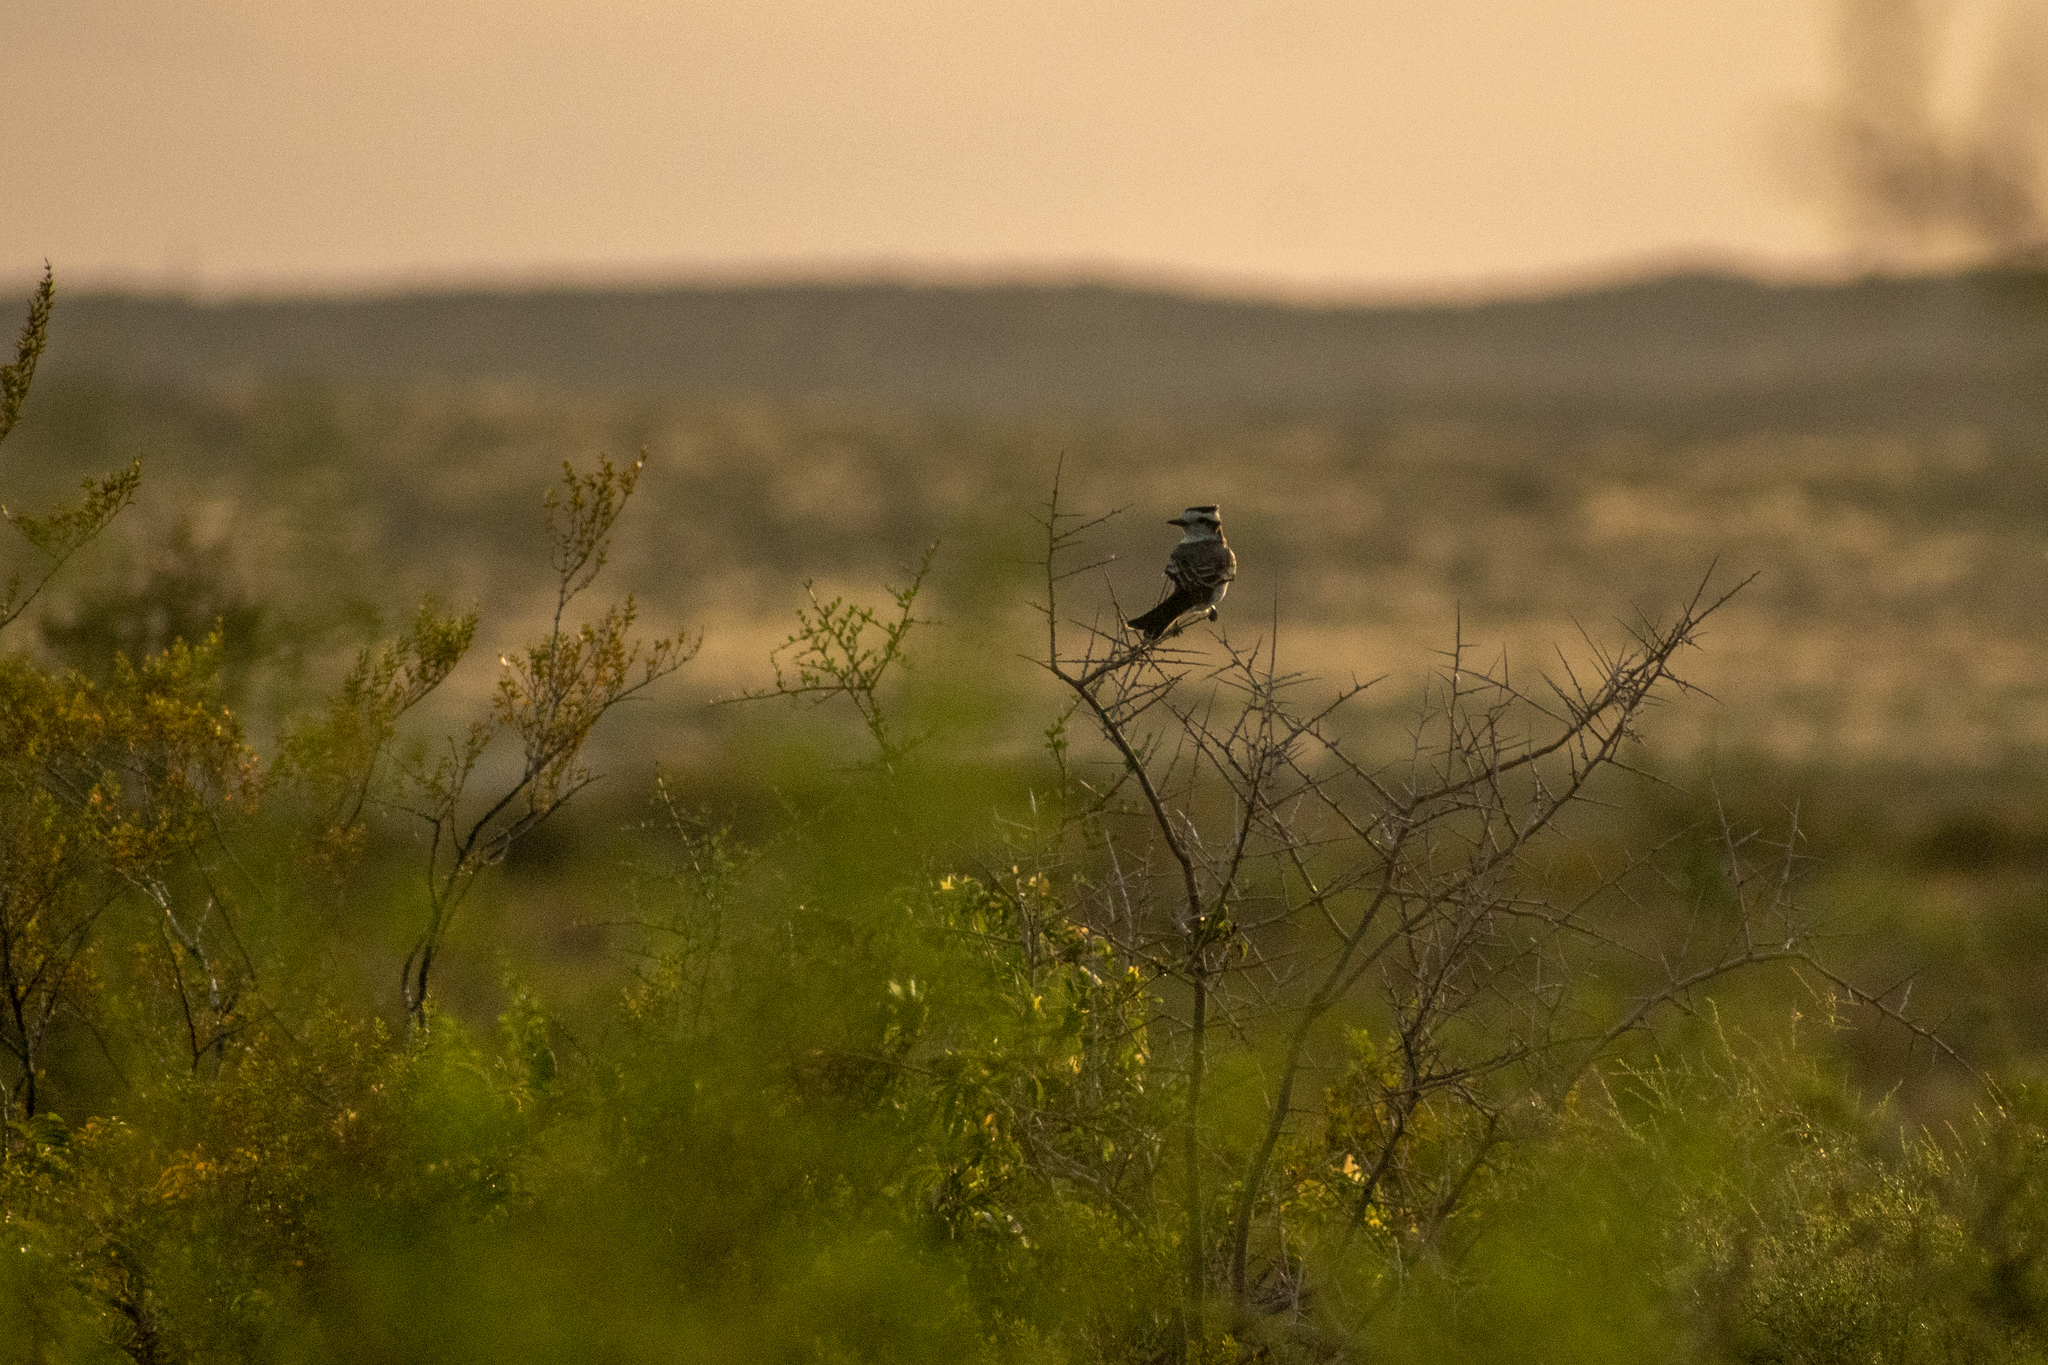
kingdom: Animalia
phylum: Chordata
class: Aves
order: Passeriformes
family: Tyrannidae
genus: Xolmis
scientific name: Xolmis coronatus
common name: Black-crowned monjita
